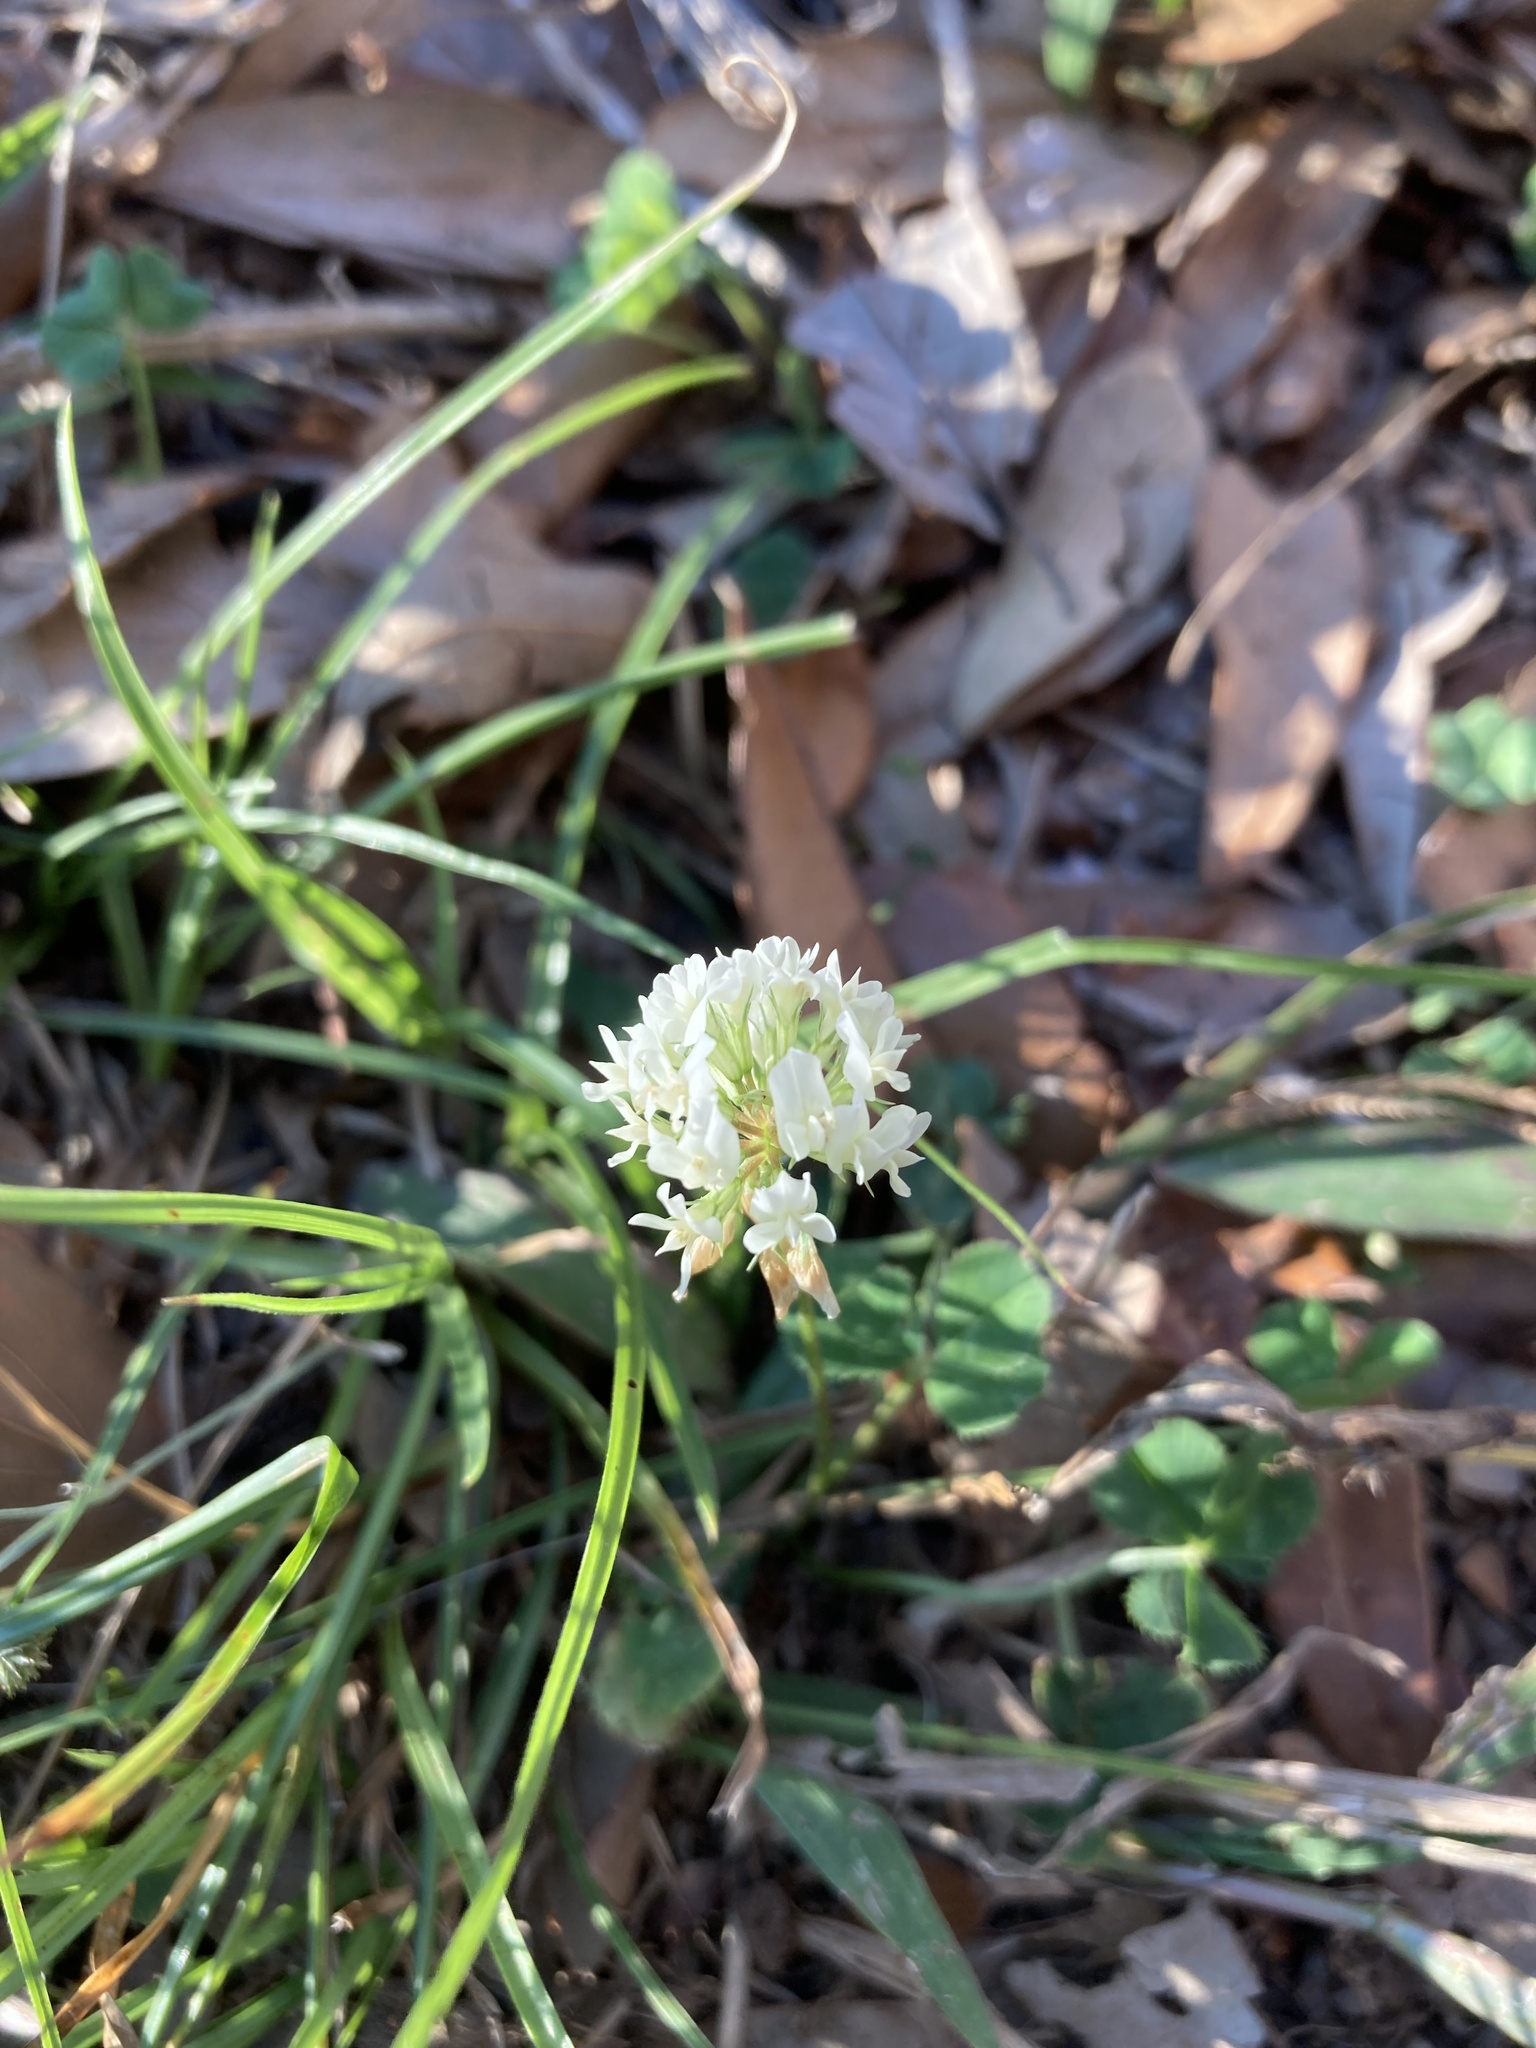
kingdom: Plantae
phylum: Tracheophyta
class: Magnoliopsida
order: Fabales
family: Fabaceae
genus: Trifolium
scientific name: Trifolium repens
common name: White clover
